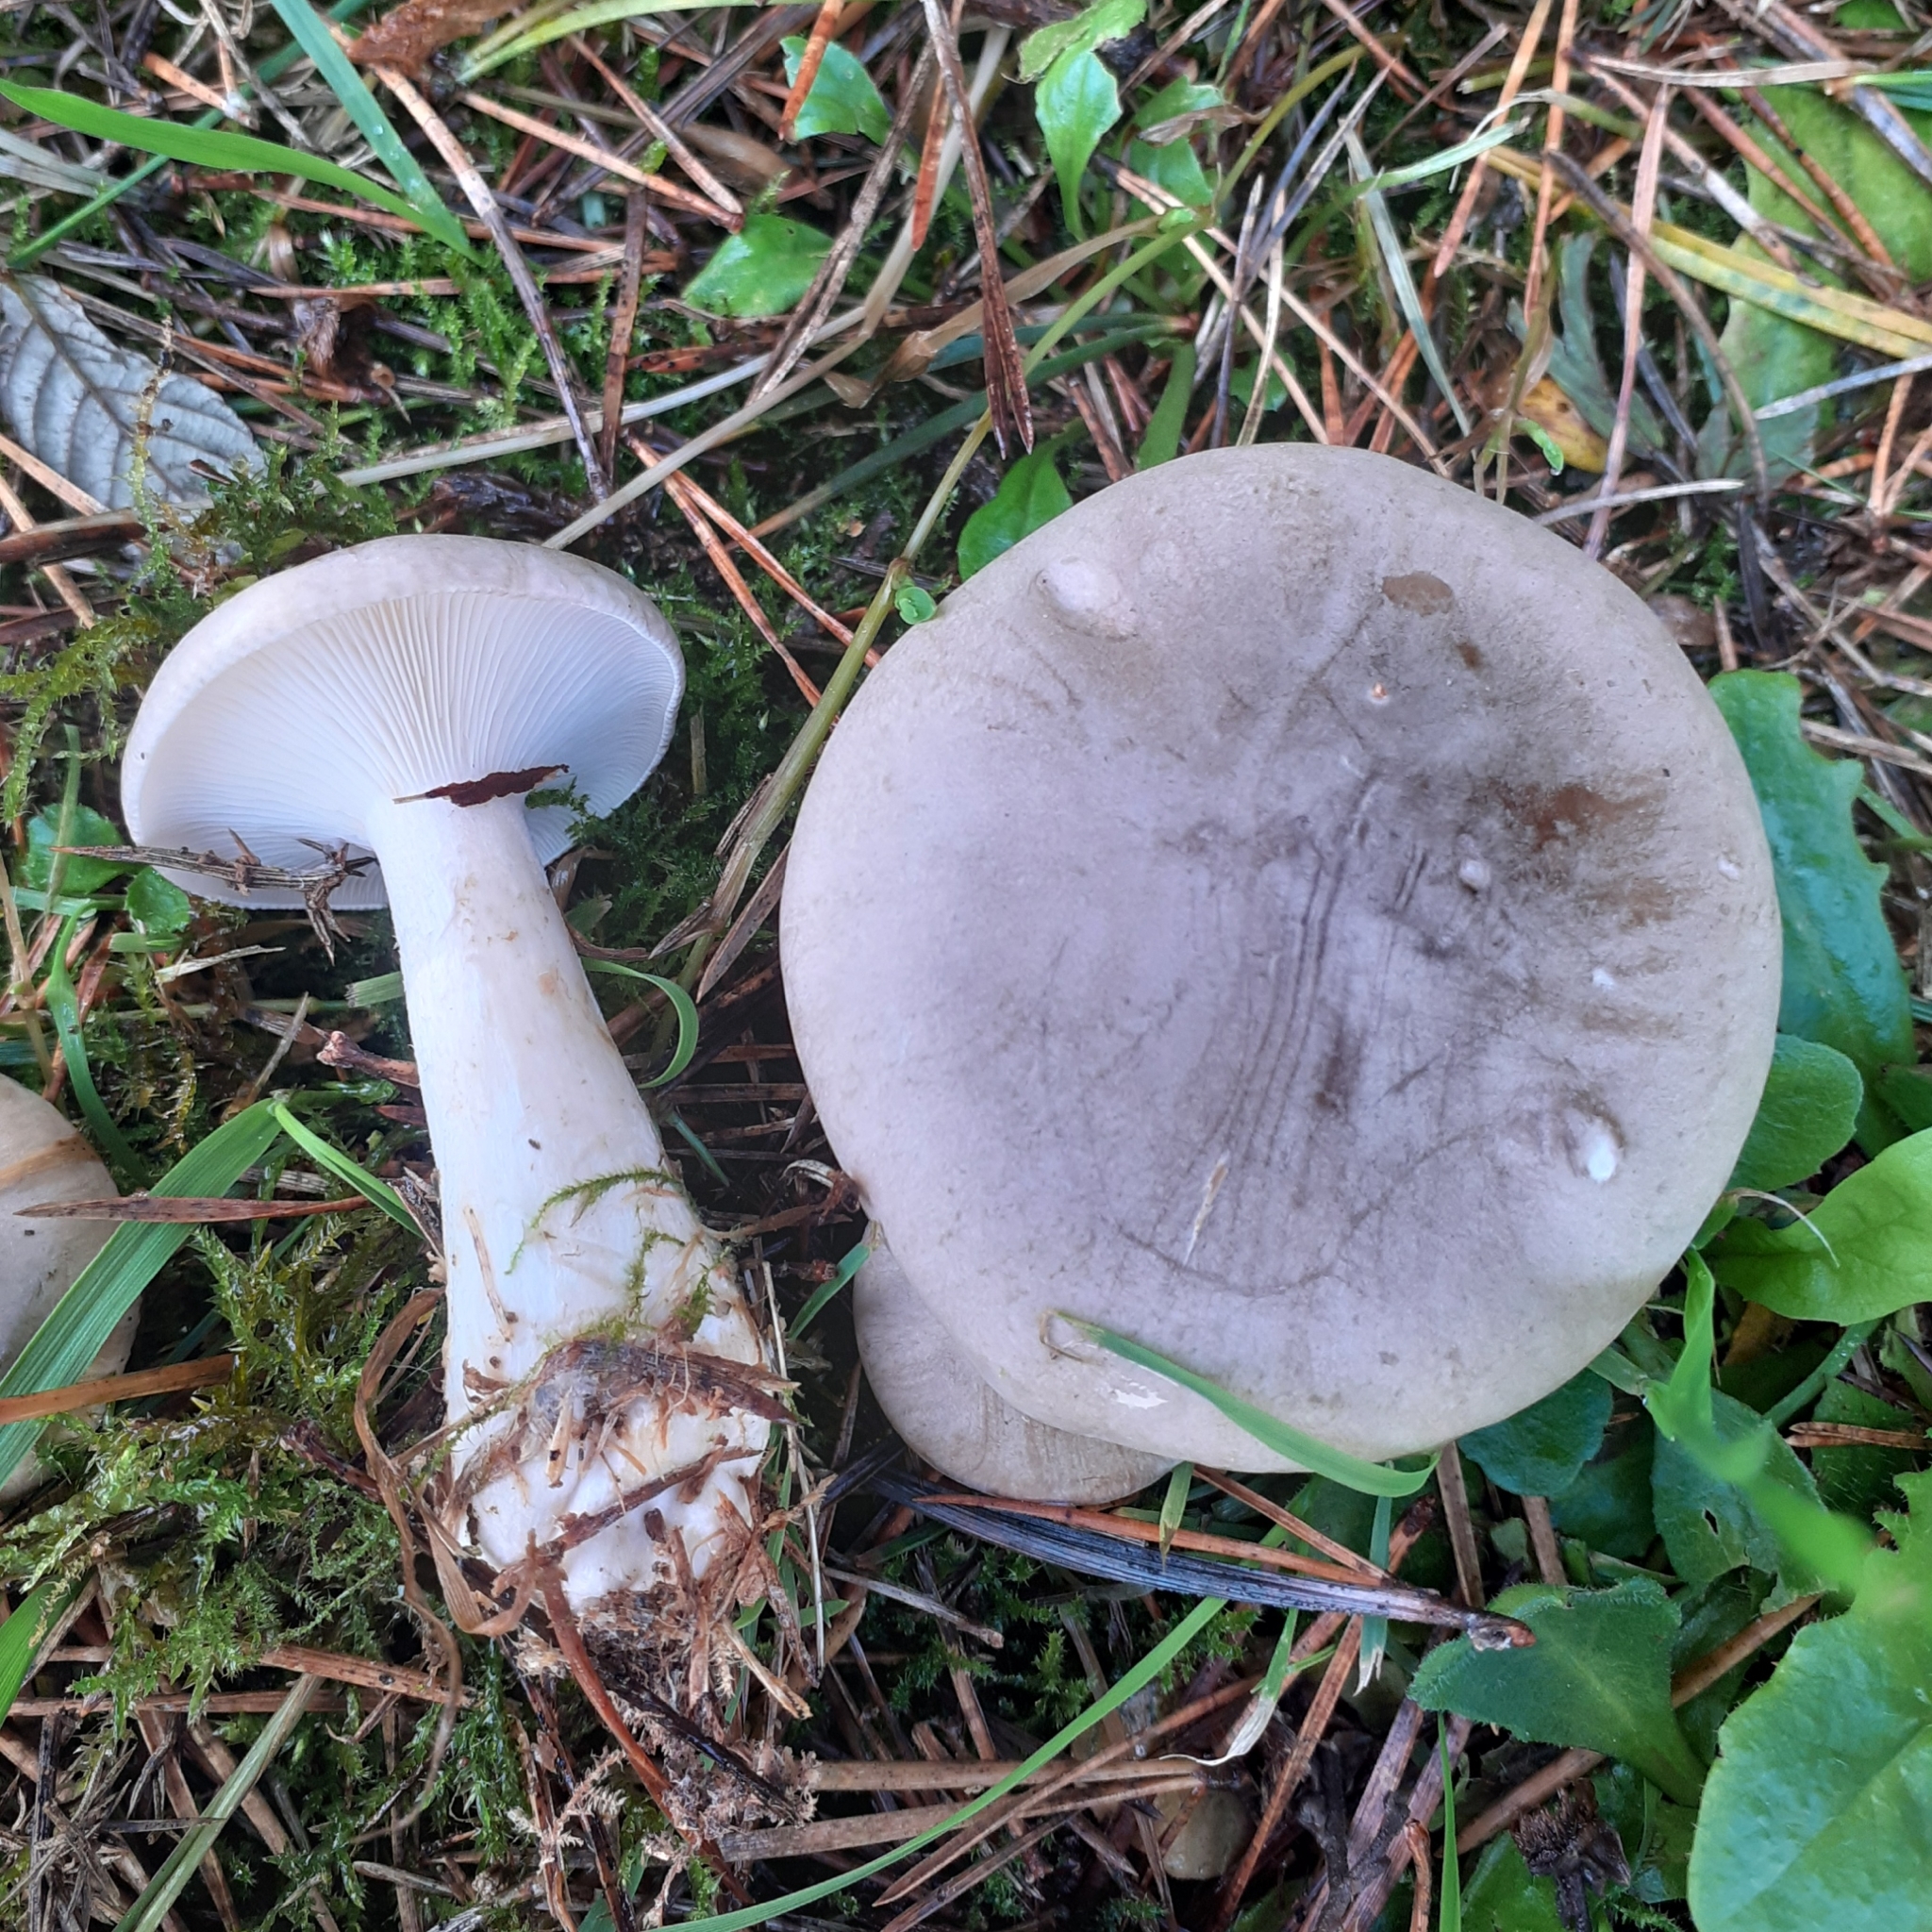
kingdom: Fungi
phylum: Basidiomycota
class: Agaricomycetes
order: Agaricales
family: Tricholomataceae
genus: Clitocybe
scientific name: Clitocybe nebularis
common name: Clouded agaric
